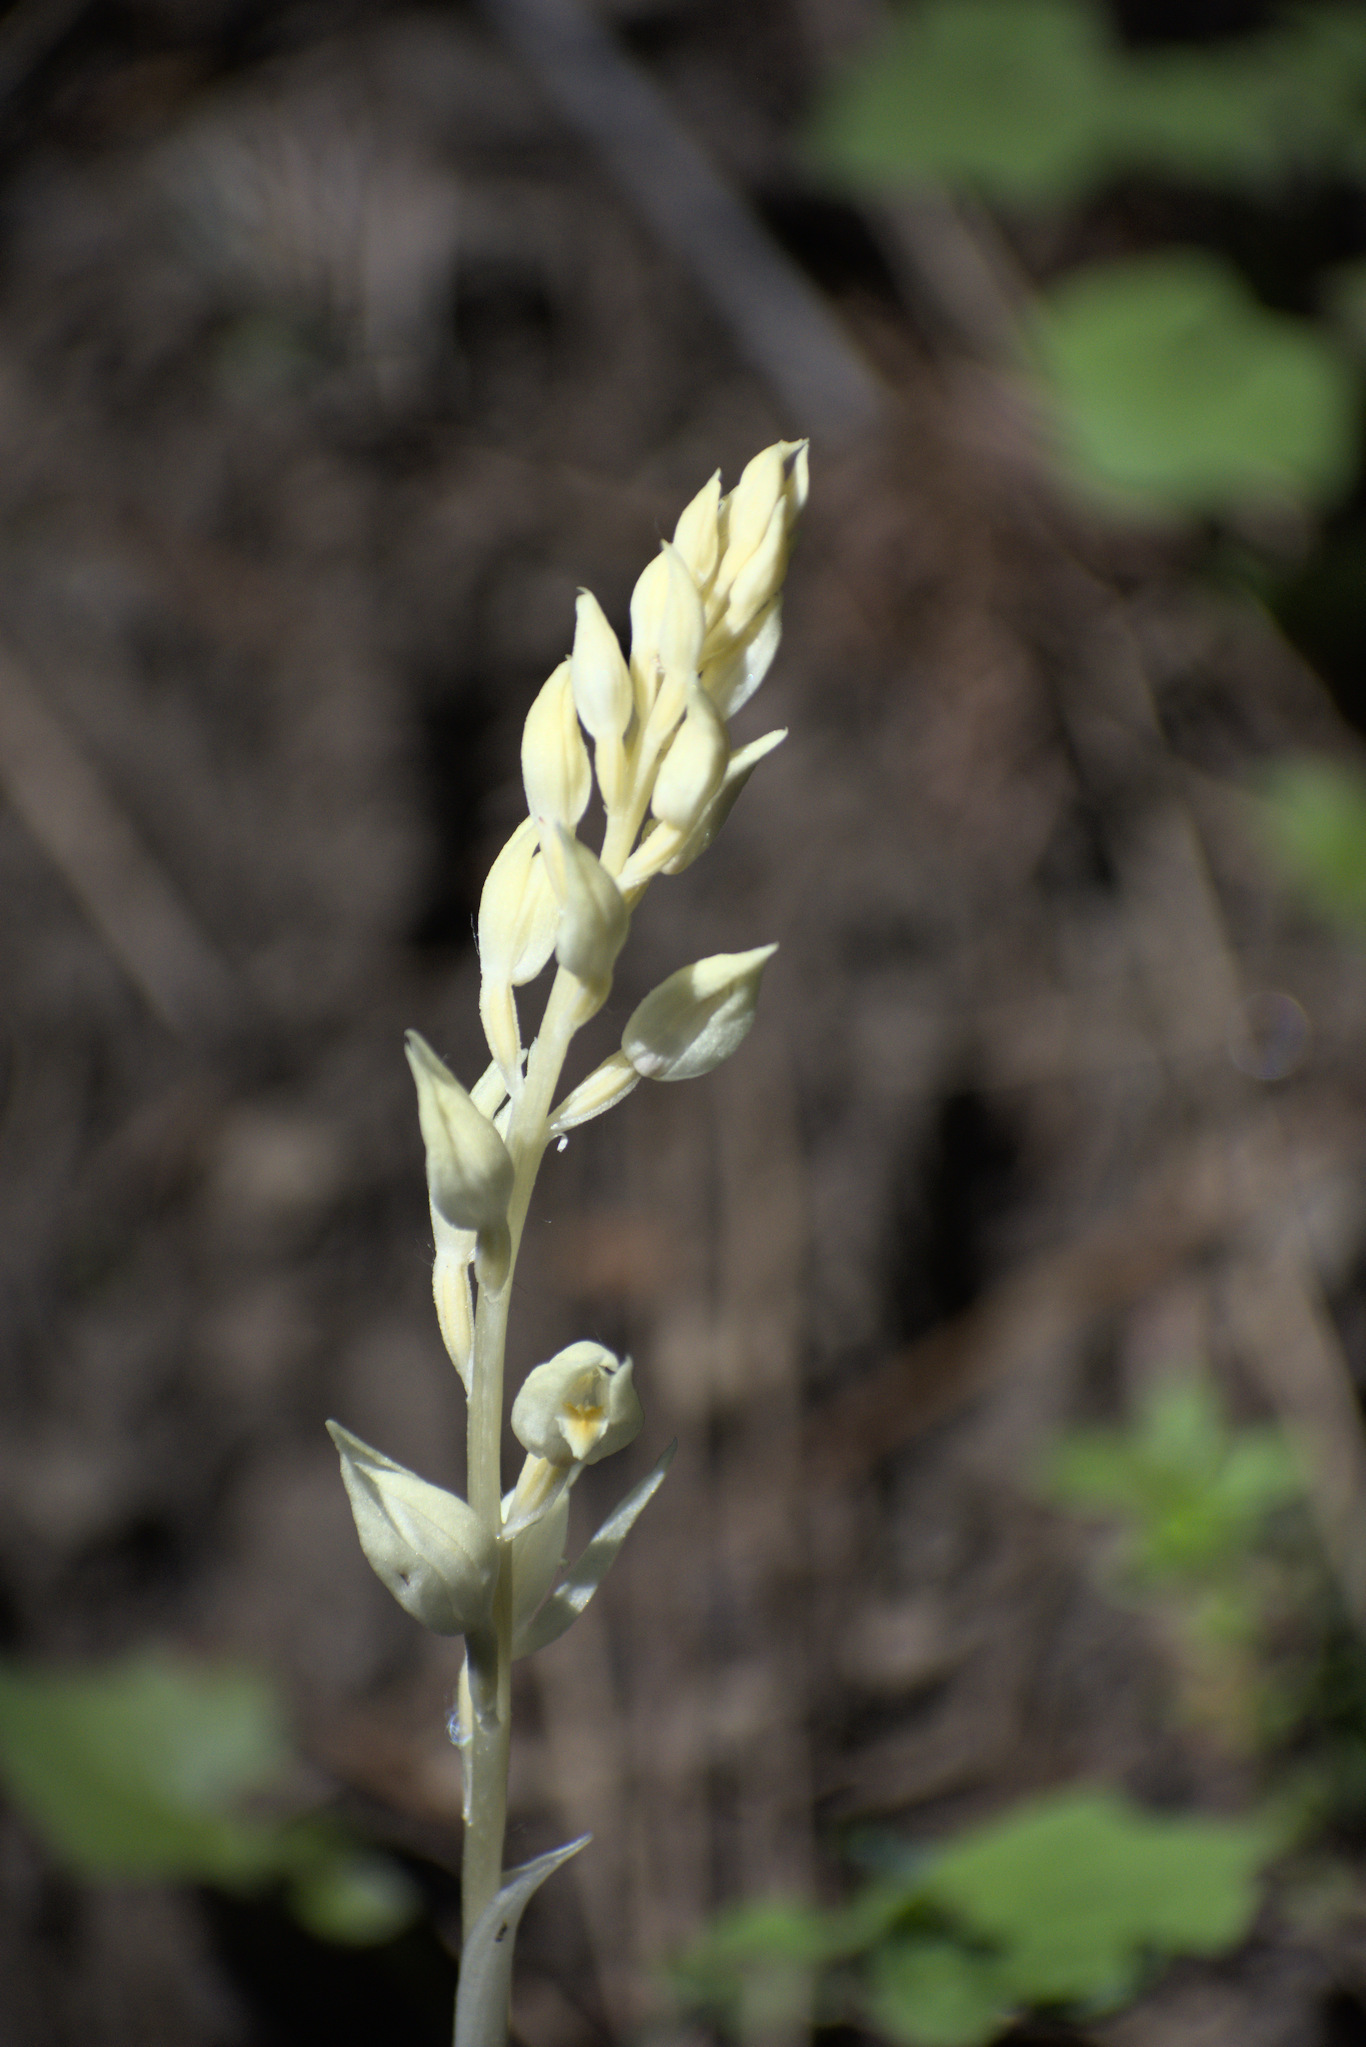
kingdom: Plantae
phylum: Tracheophyta
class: Liliopsida
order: Asparagales
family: Orchidaceae
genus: Cephalanthera
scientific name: Cephalanthera austiniae
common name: Phantom orchid
